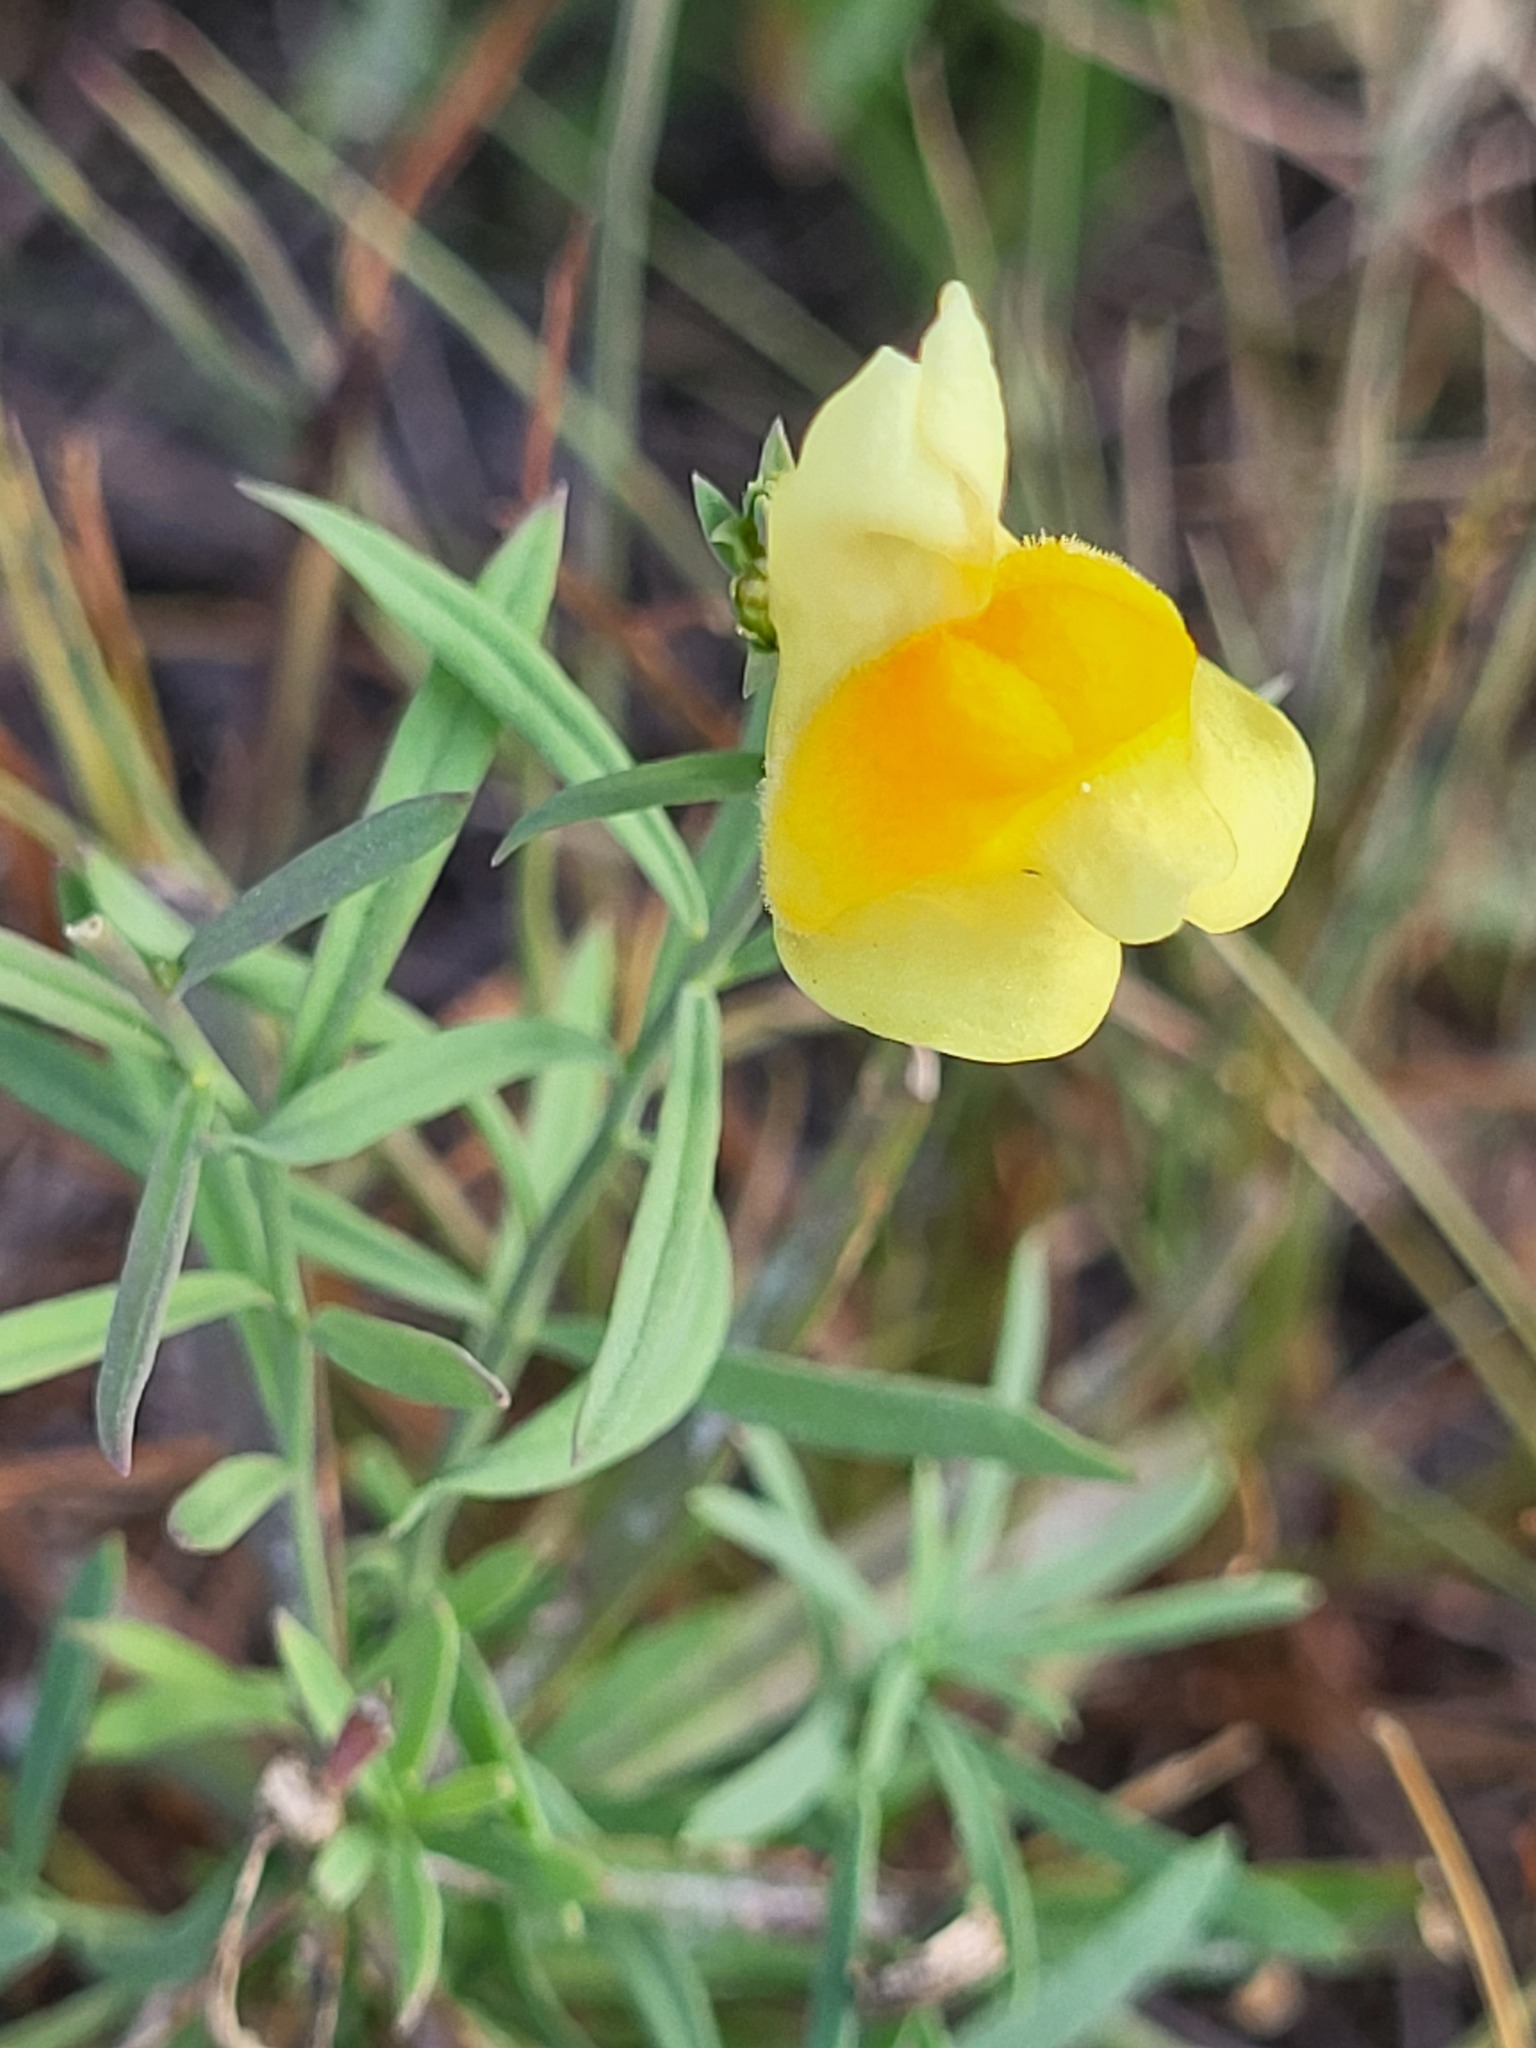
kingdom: Plantae
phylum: Tracheophyta
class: Magnoliopsida
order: Lamiales
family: Plantaginaceae
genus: Linaria
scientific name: Linaria vulgaris
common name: Butter and eggs
